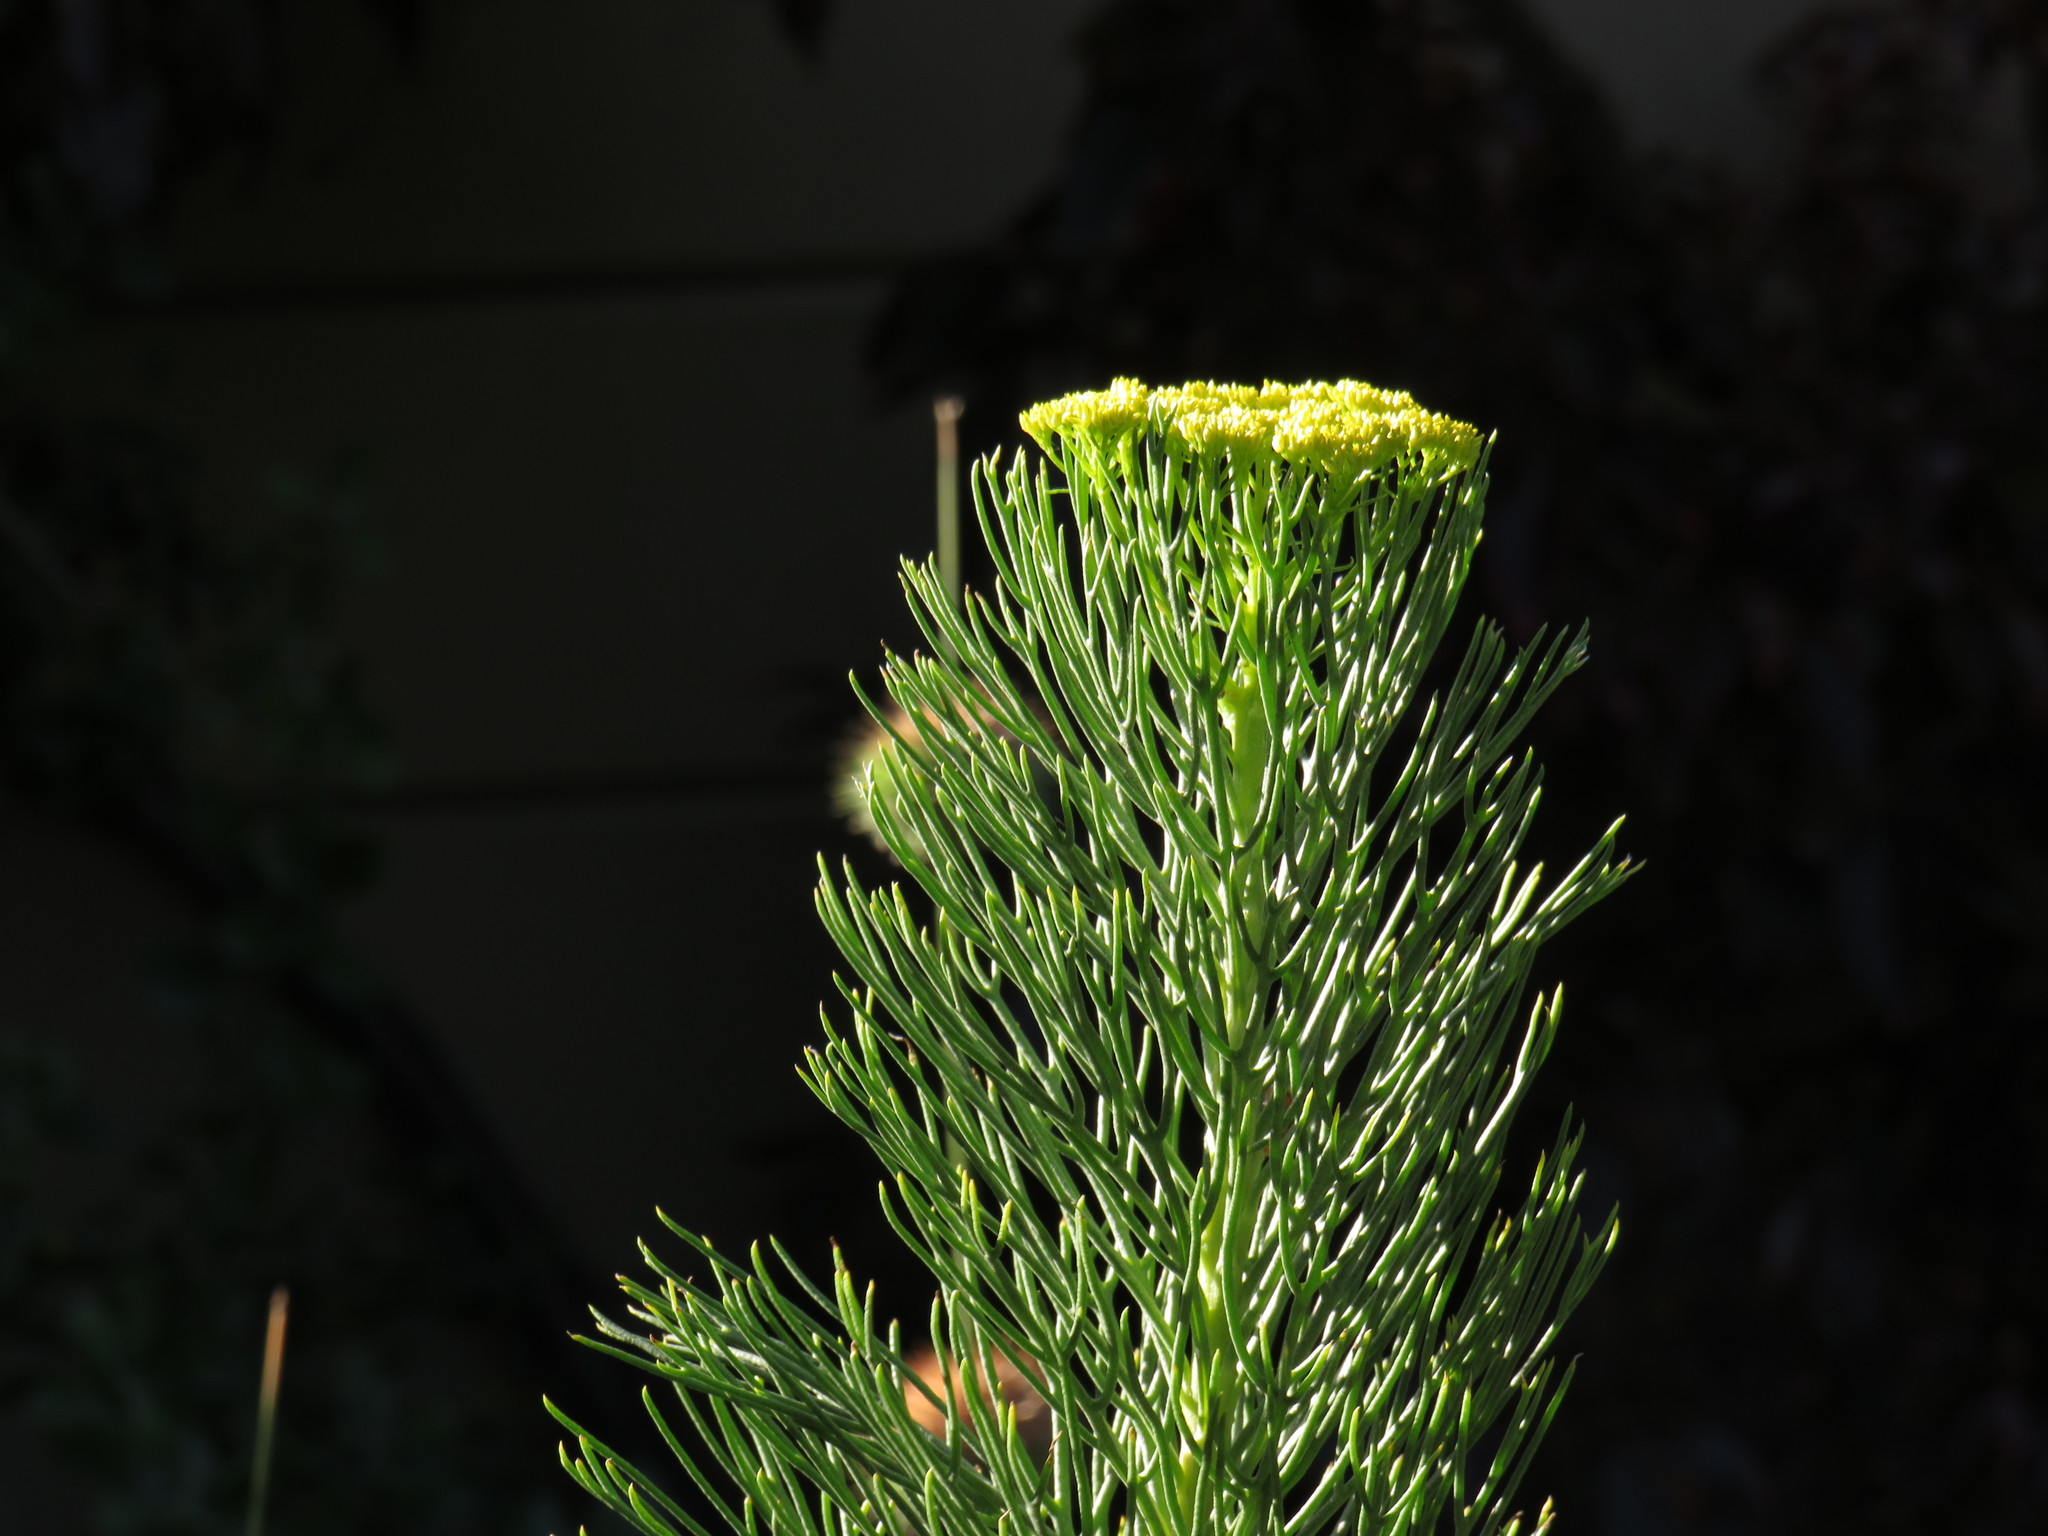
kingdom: Plantae
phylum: Tracheophyta
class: Magnoliopsida
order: Asterales
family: Asteraceae
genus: Hymenolepis
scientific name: Hymenolepis crithmifolia
